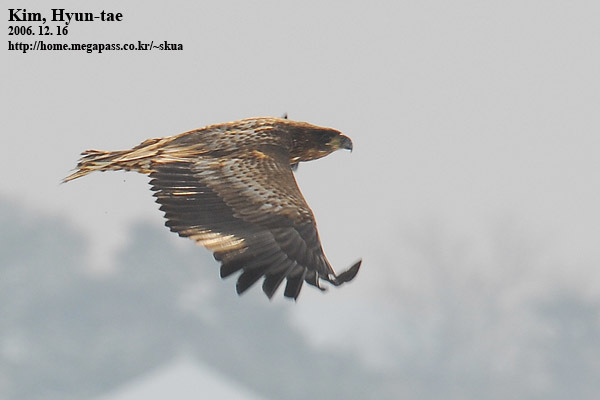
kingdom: Animalia
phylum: Chordata
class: Aves
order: Accipitriformes
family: Accipitridae
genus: Haliaeetus
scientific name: Haliaeetus albicilla
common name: White-tailed eagle
